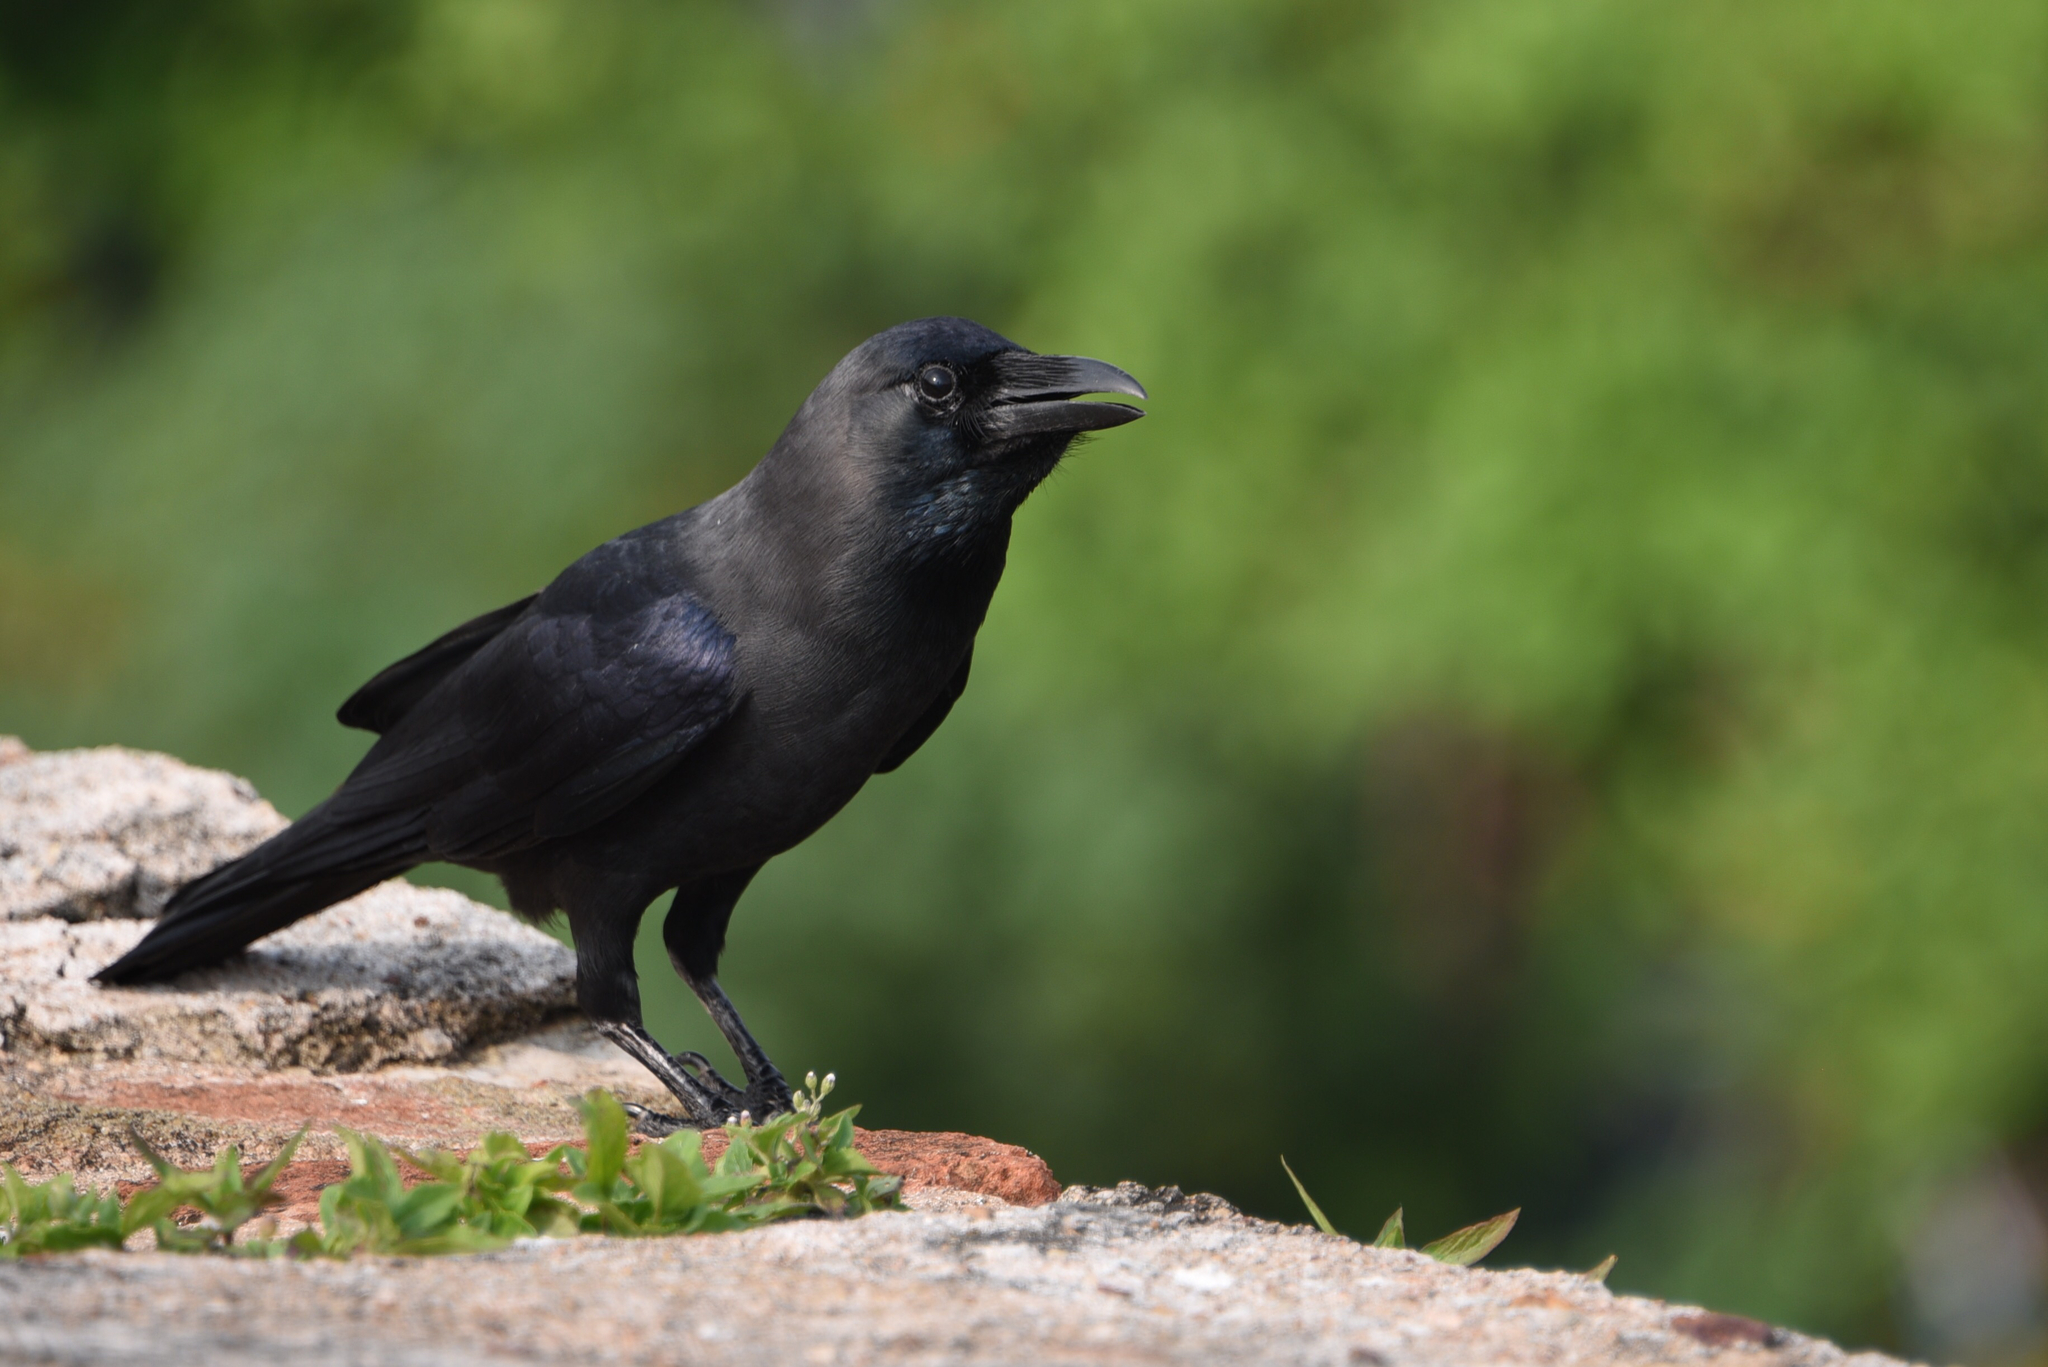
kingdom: Animalia
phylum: Chordata
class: Aves
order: Passeriformes
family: Corvidae
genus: Corvus
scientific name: Corvus splendens
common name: House crow
